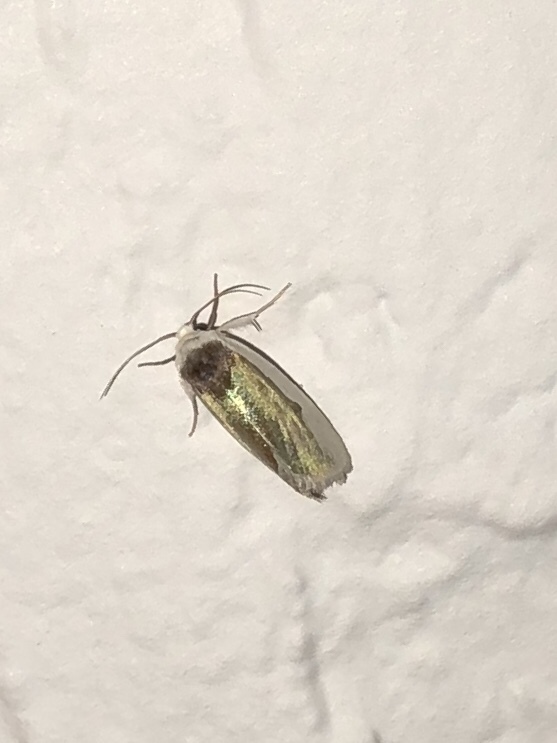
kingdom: Animalia
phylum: Arthropoda
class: Insecta
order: Lepidoptera
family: Noctuidae
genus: Neumoegenia
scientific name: Neumoegenia poetica
